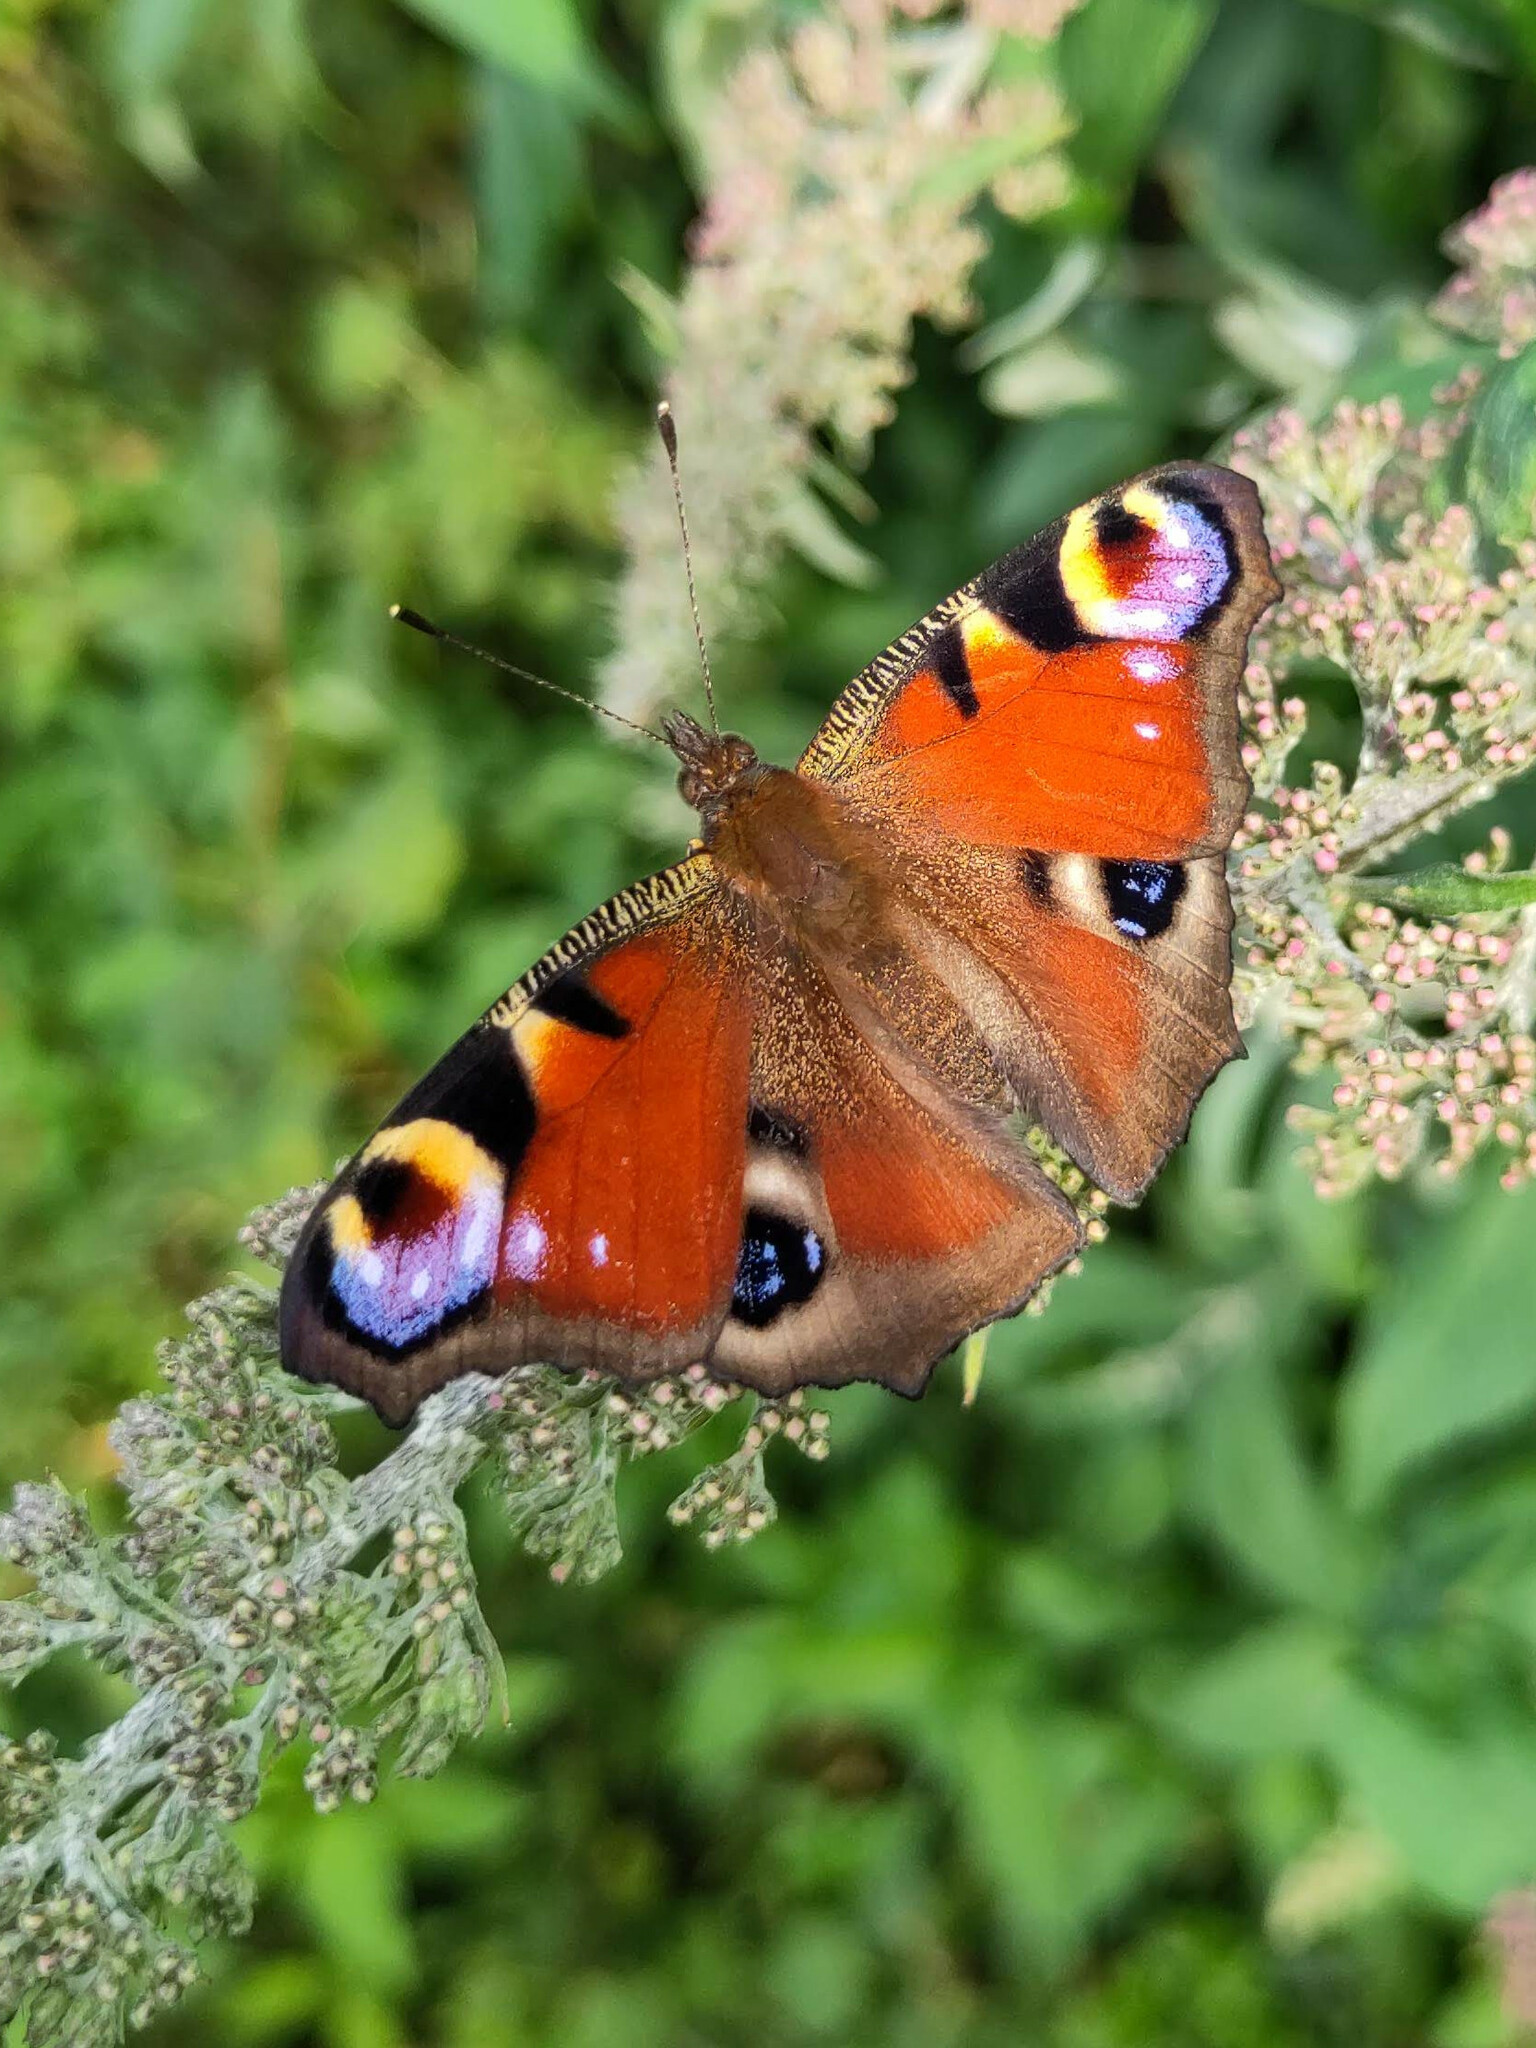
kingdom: Animalia
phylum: Arthropoda
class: Insecta
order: Lepidoptera
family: Nymphalidae
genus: Aglais
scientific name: Aglais io
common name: Peacock
